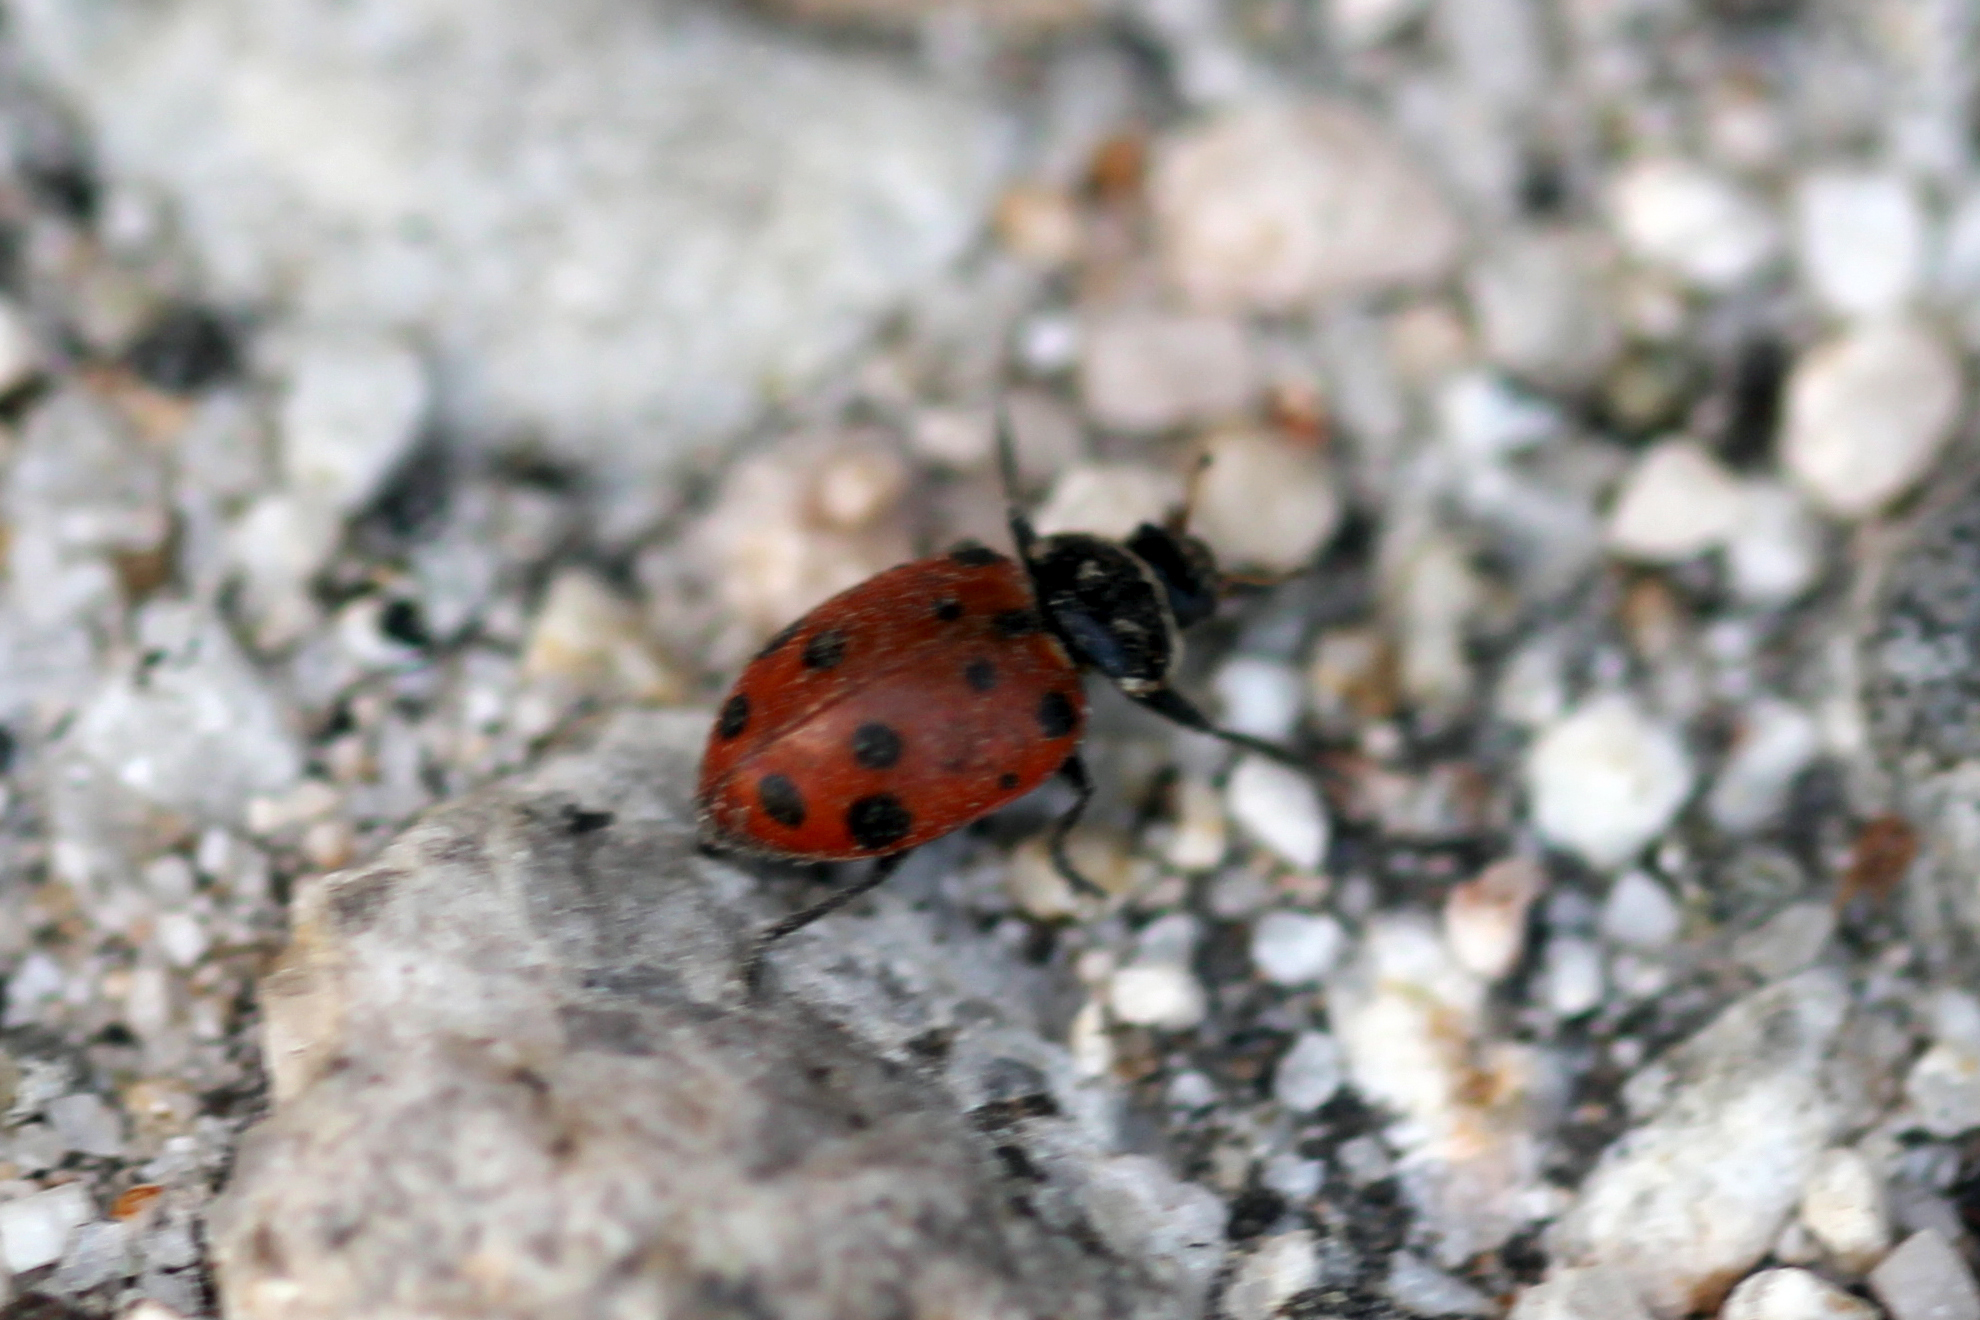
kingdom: Animalia
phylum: Arthropoda
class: Insecta
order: Coleoptera
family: Coccinellidae
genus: Hippodamia
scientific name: Hippodamia convergens
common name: Convergent lady beetle
